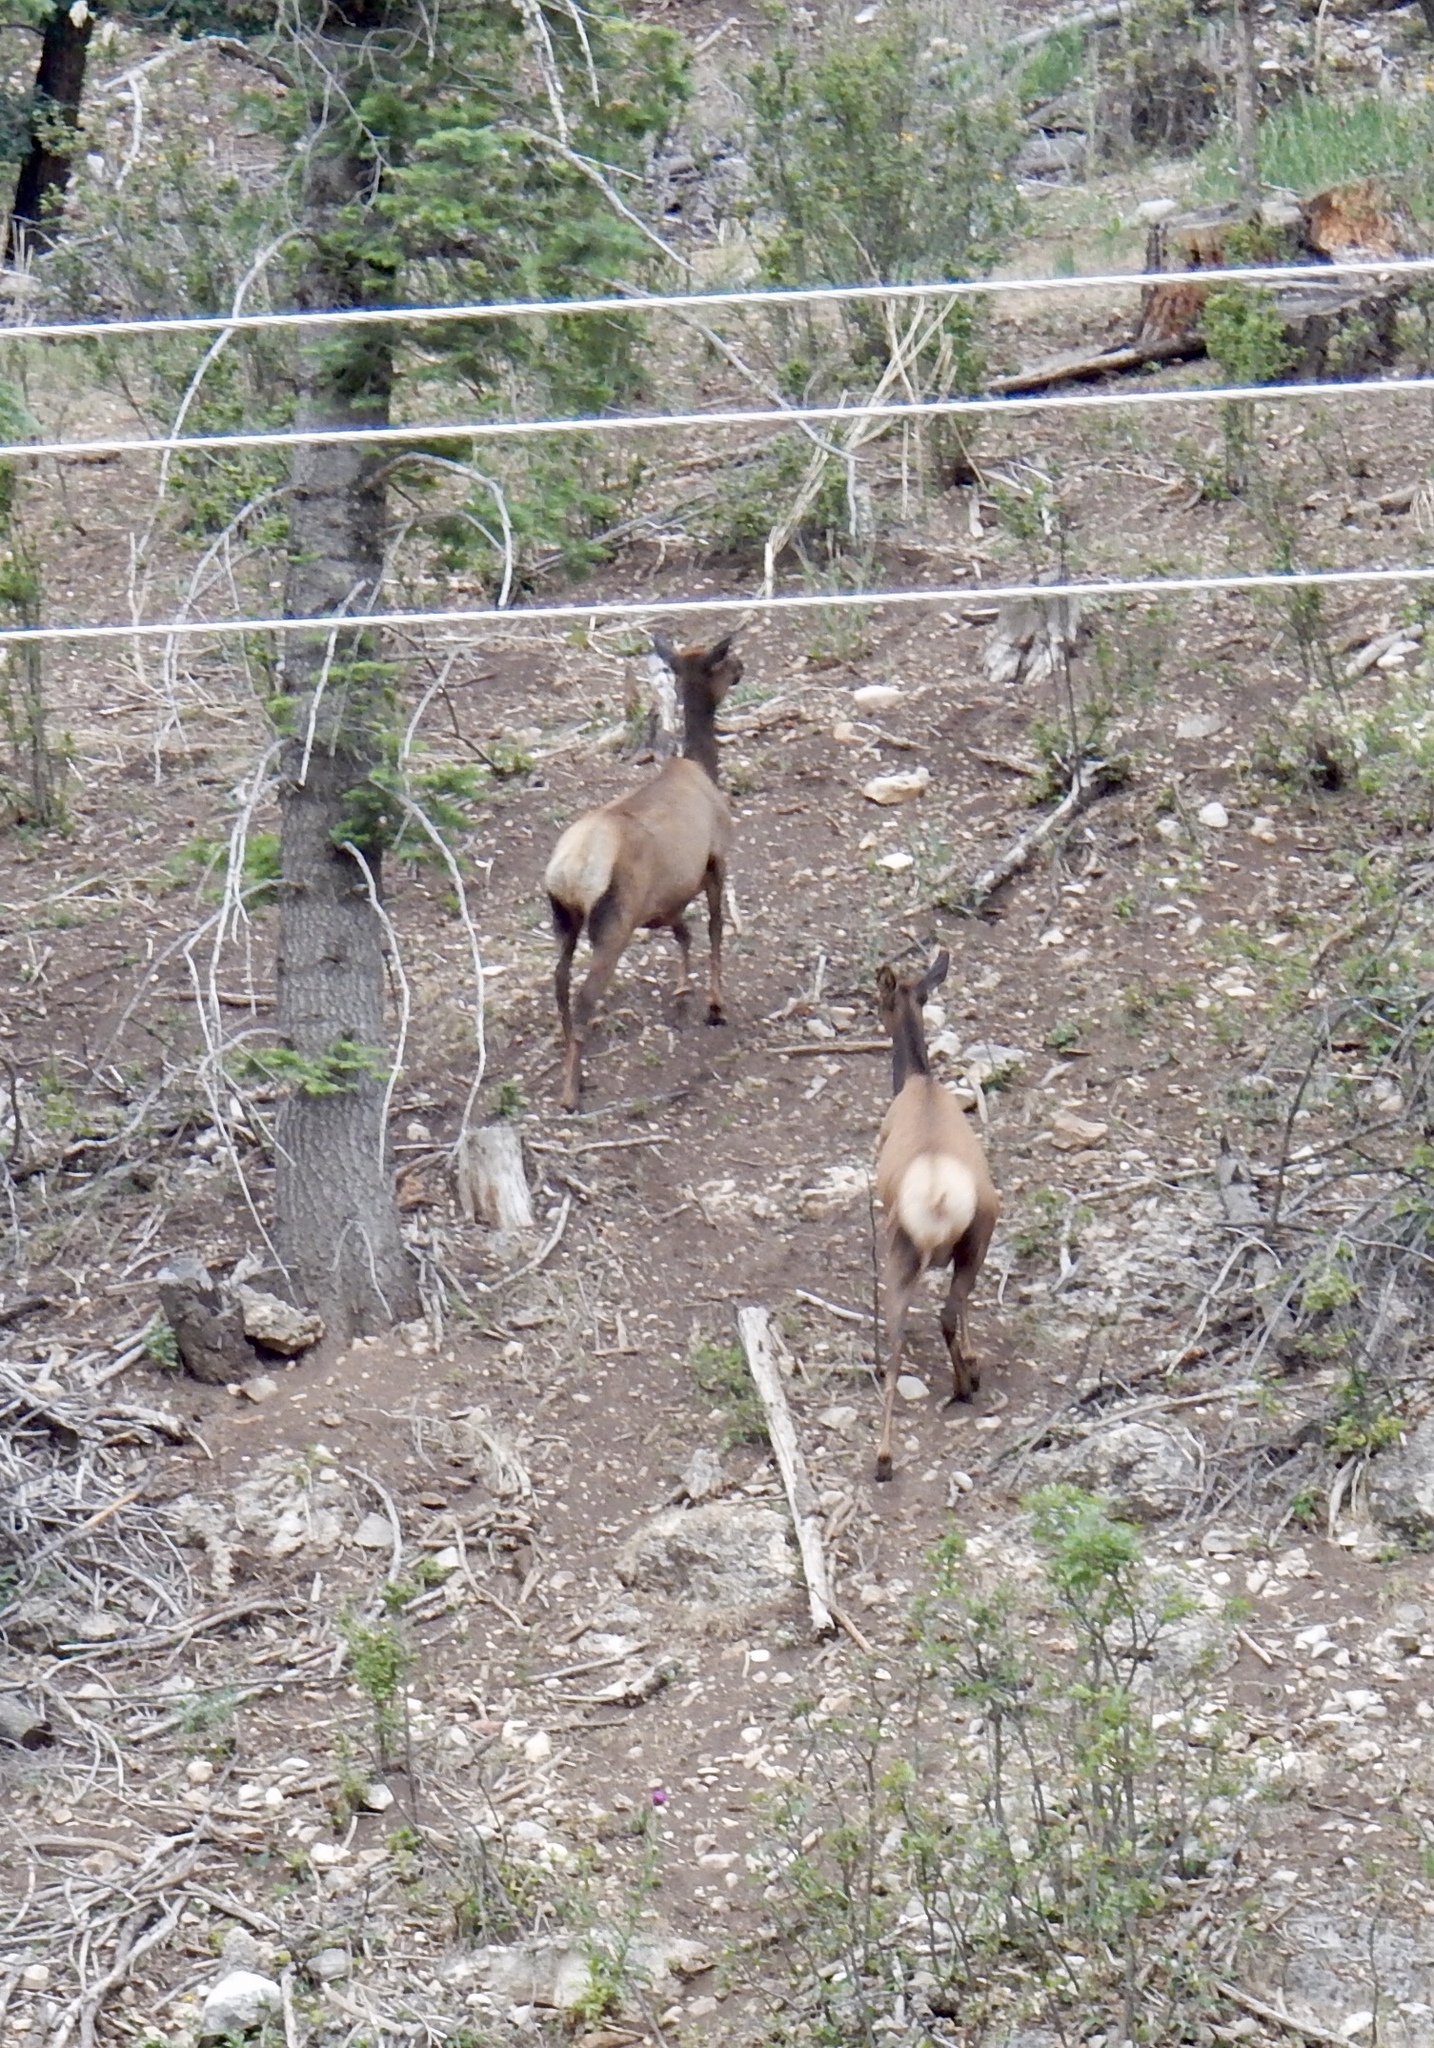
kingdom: Animalia
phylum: Chordata
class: Mammalia
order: Artiodactyla
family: Cervidae
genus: Cervus
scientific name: Cervus elaphus
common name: Red deer
